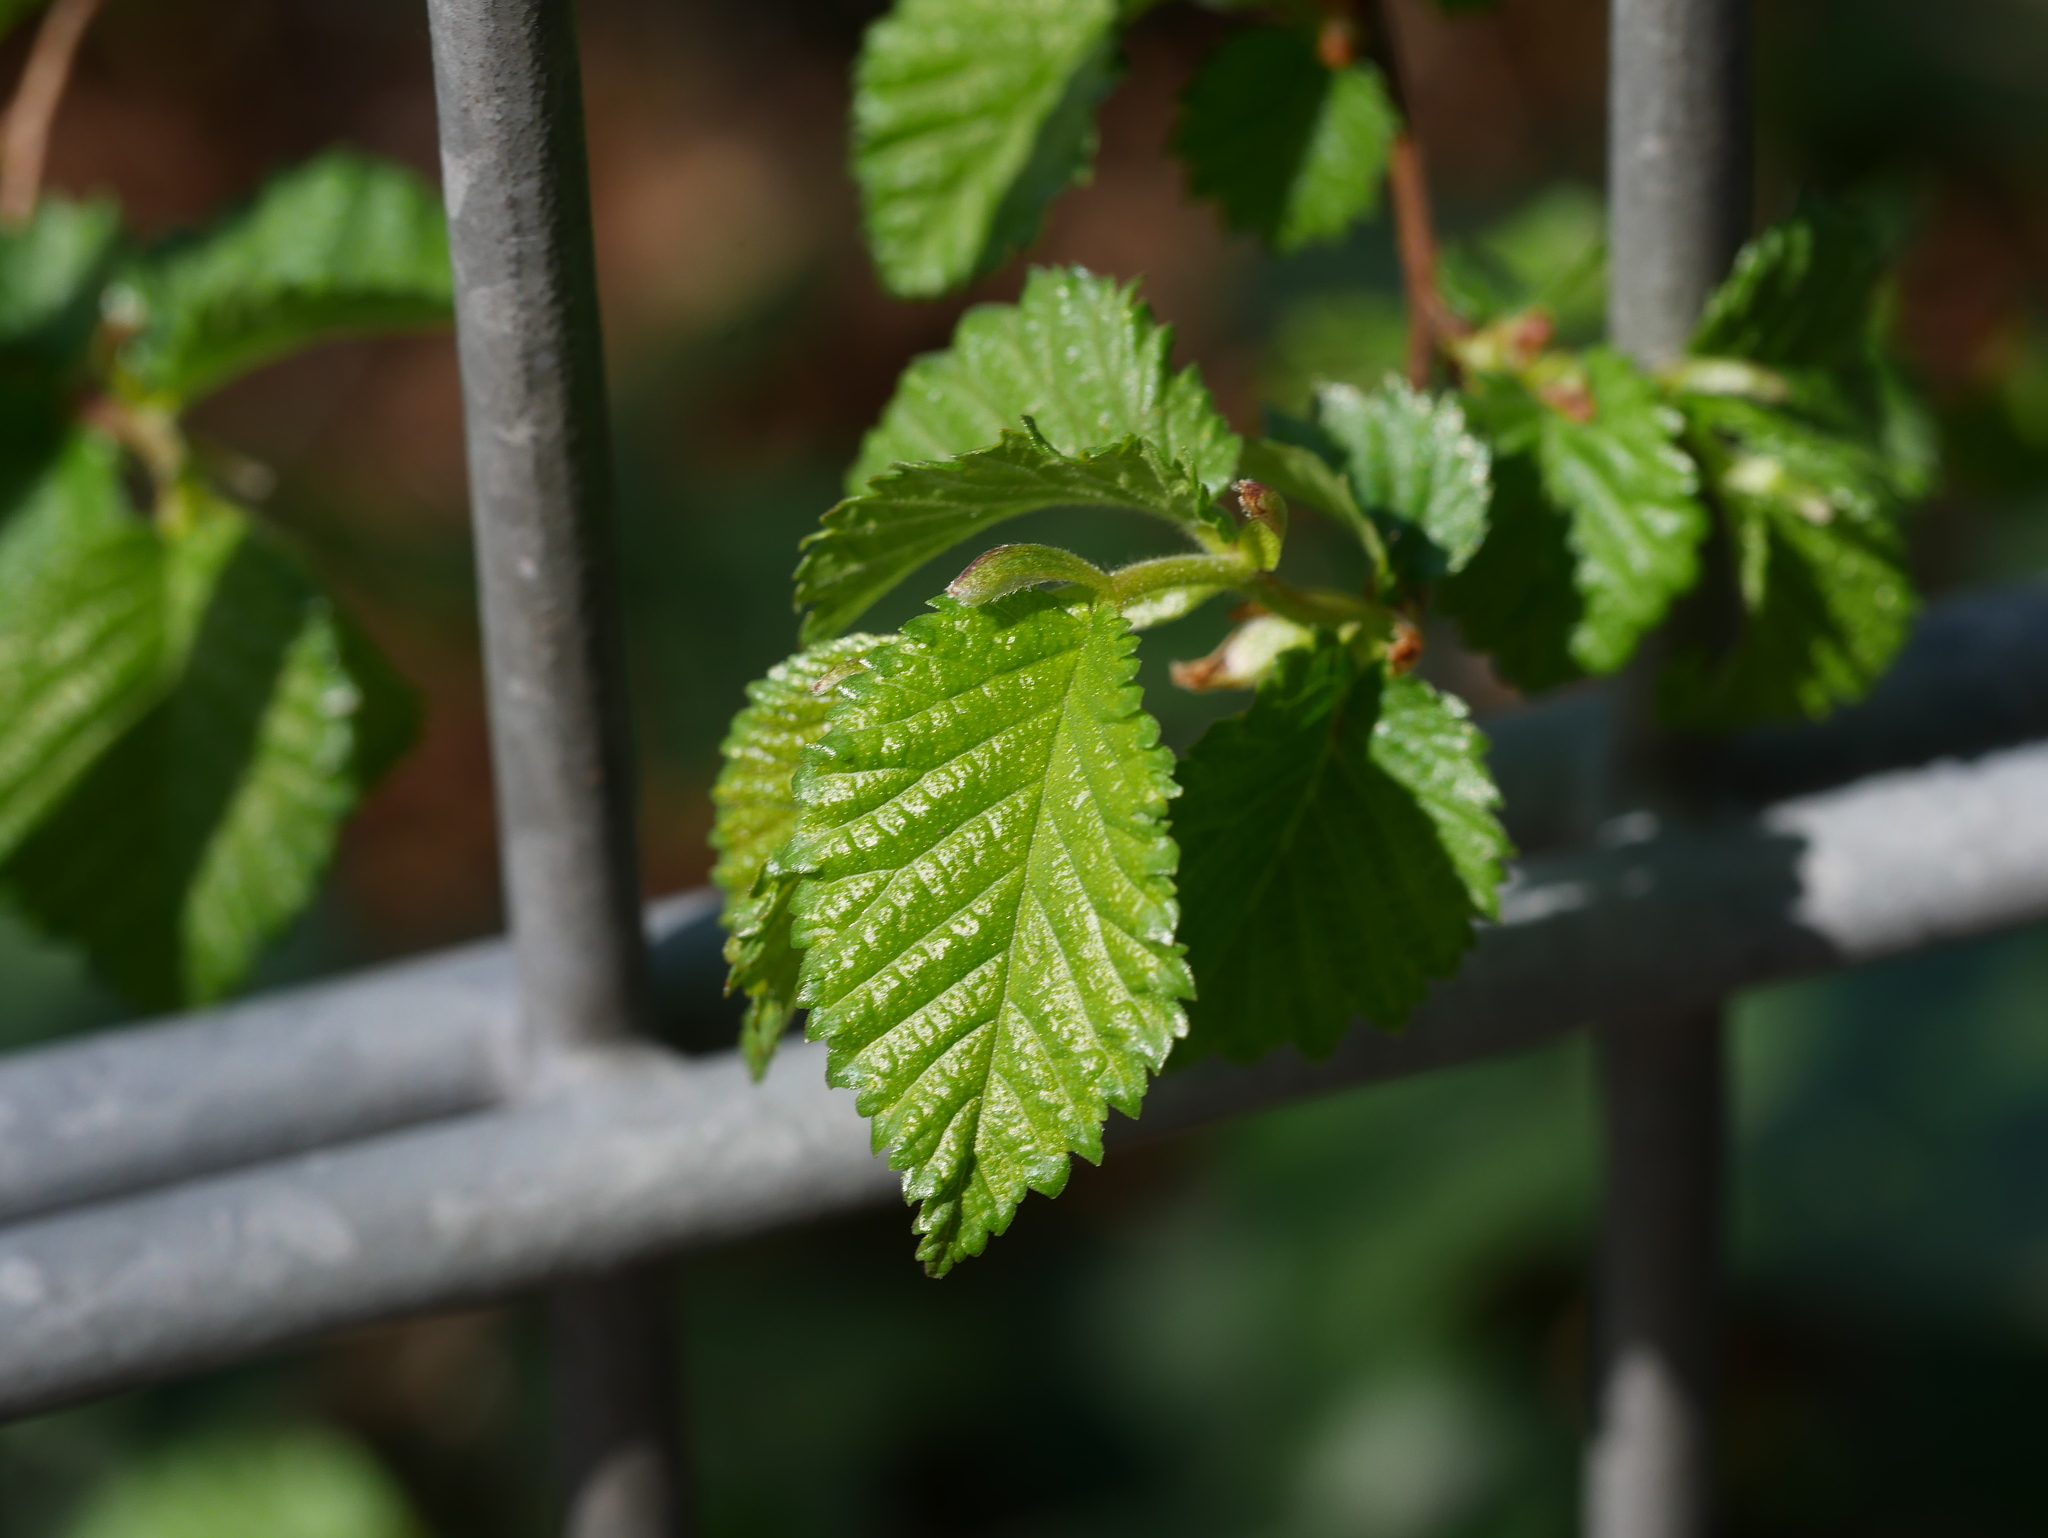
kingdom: Plantae
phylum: Tracheophyta
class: Magnoliopsida
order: Rosales
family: Ulmaceae
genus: Ulmus
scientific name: Ulmus minor
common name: Small-leaved elm
